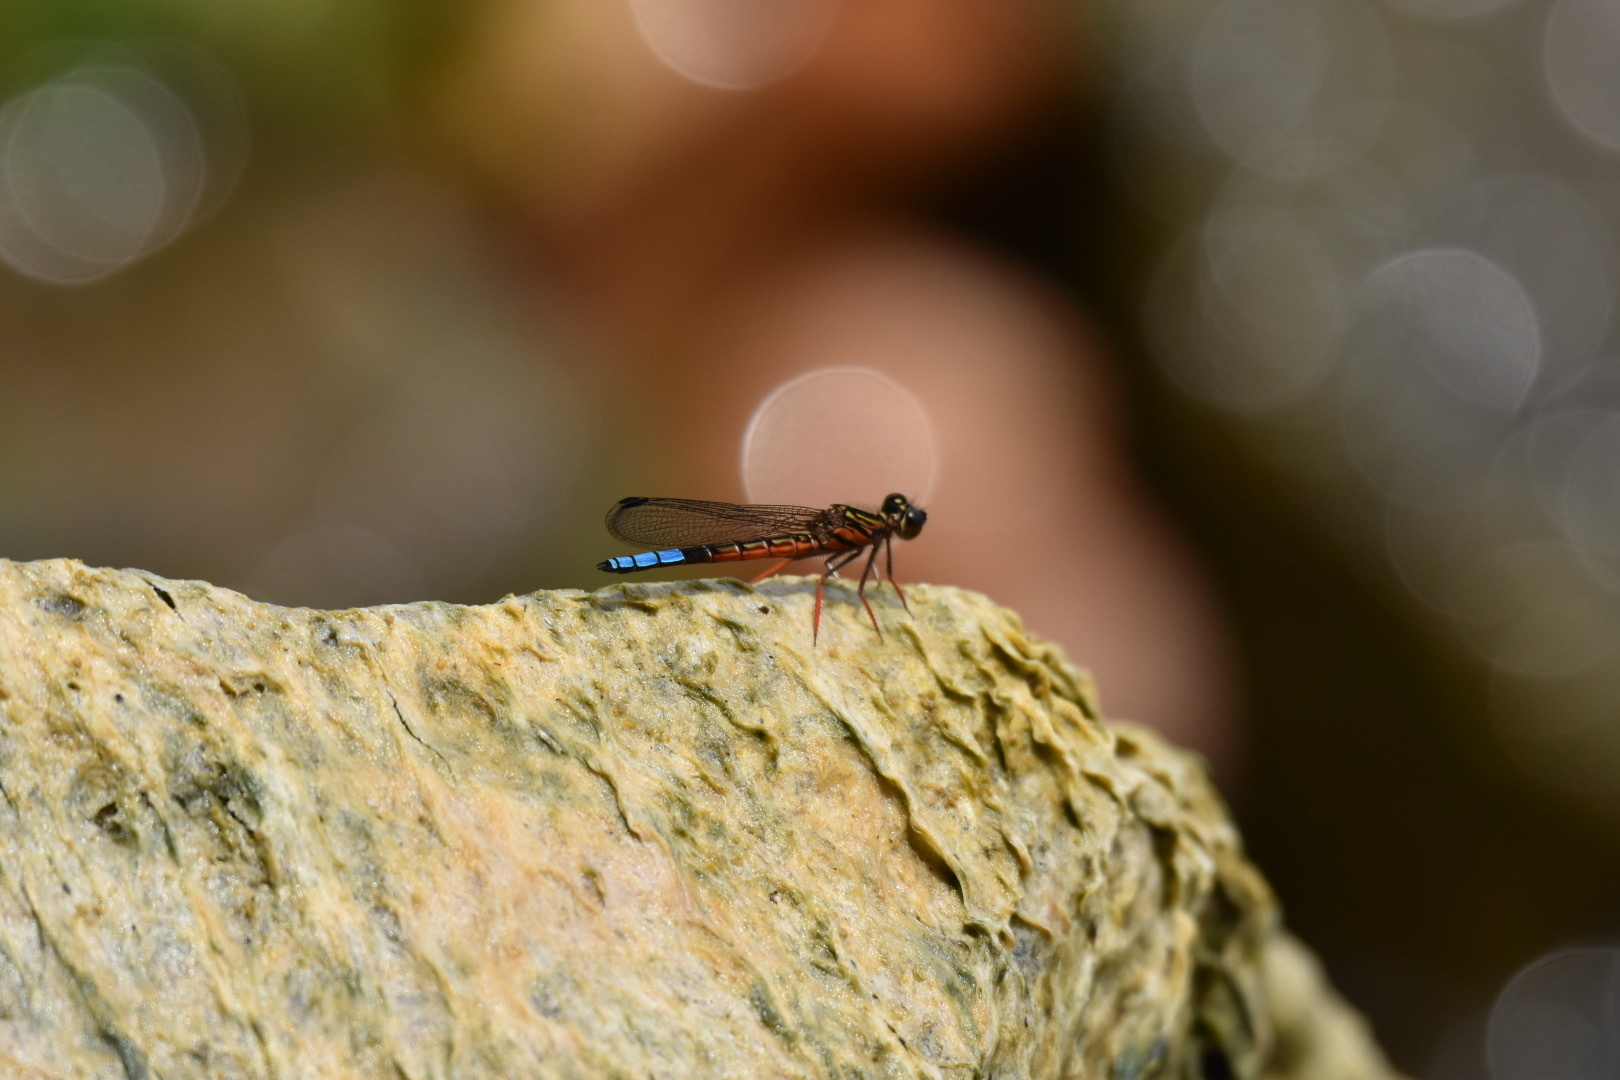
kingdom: Animalia
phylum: Arthropoda
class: Insecta
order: Odonata
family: Chlorocyphidae
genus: Platycypha
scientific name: Platycypha pinheyi
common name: Tanganyika jewel
